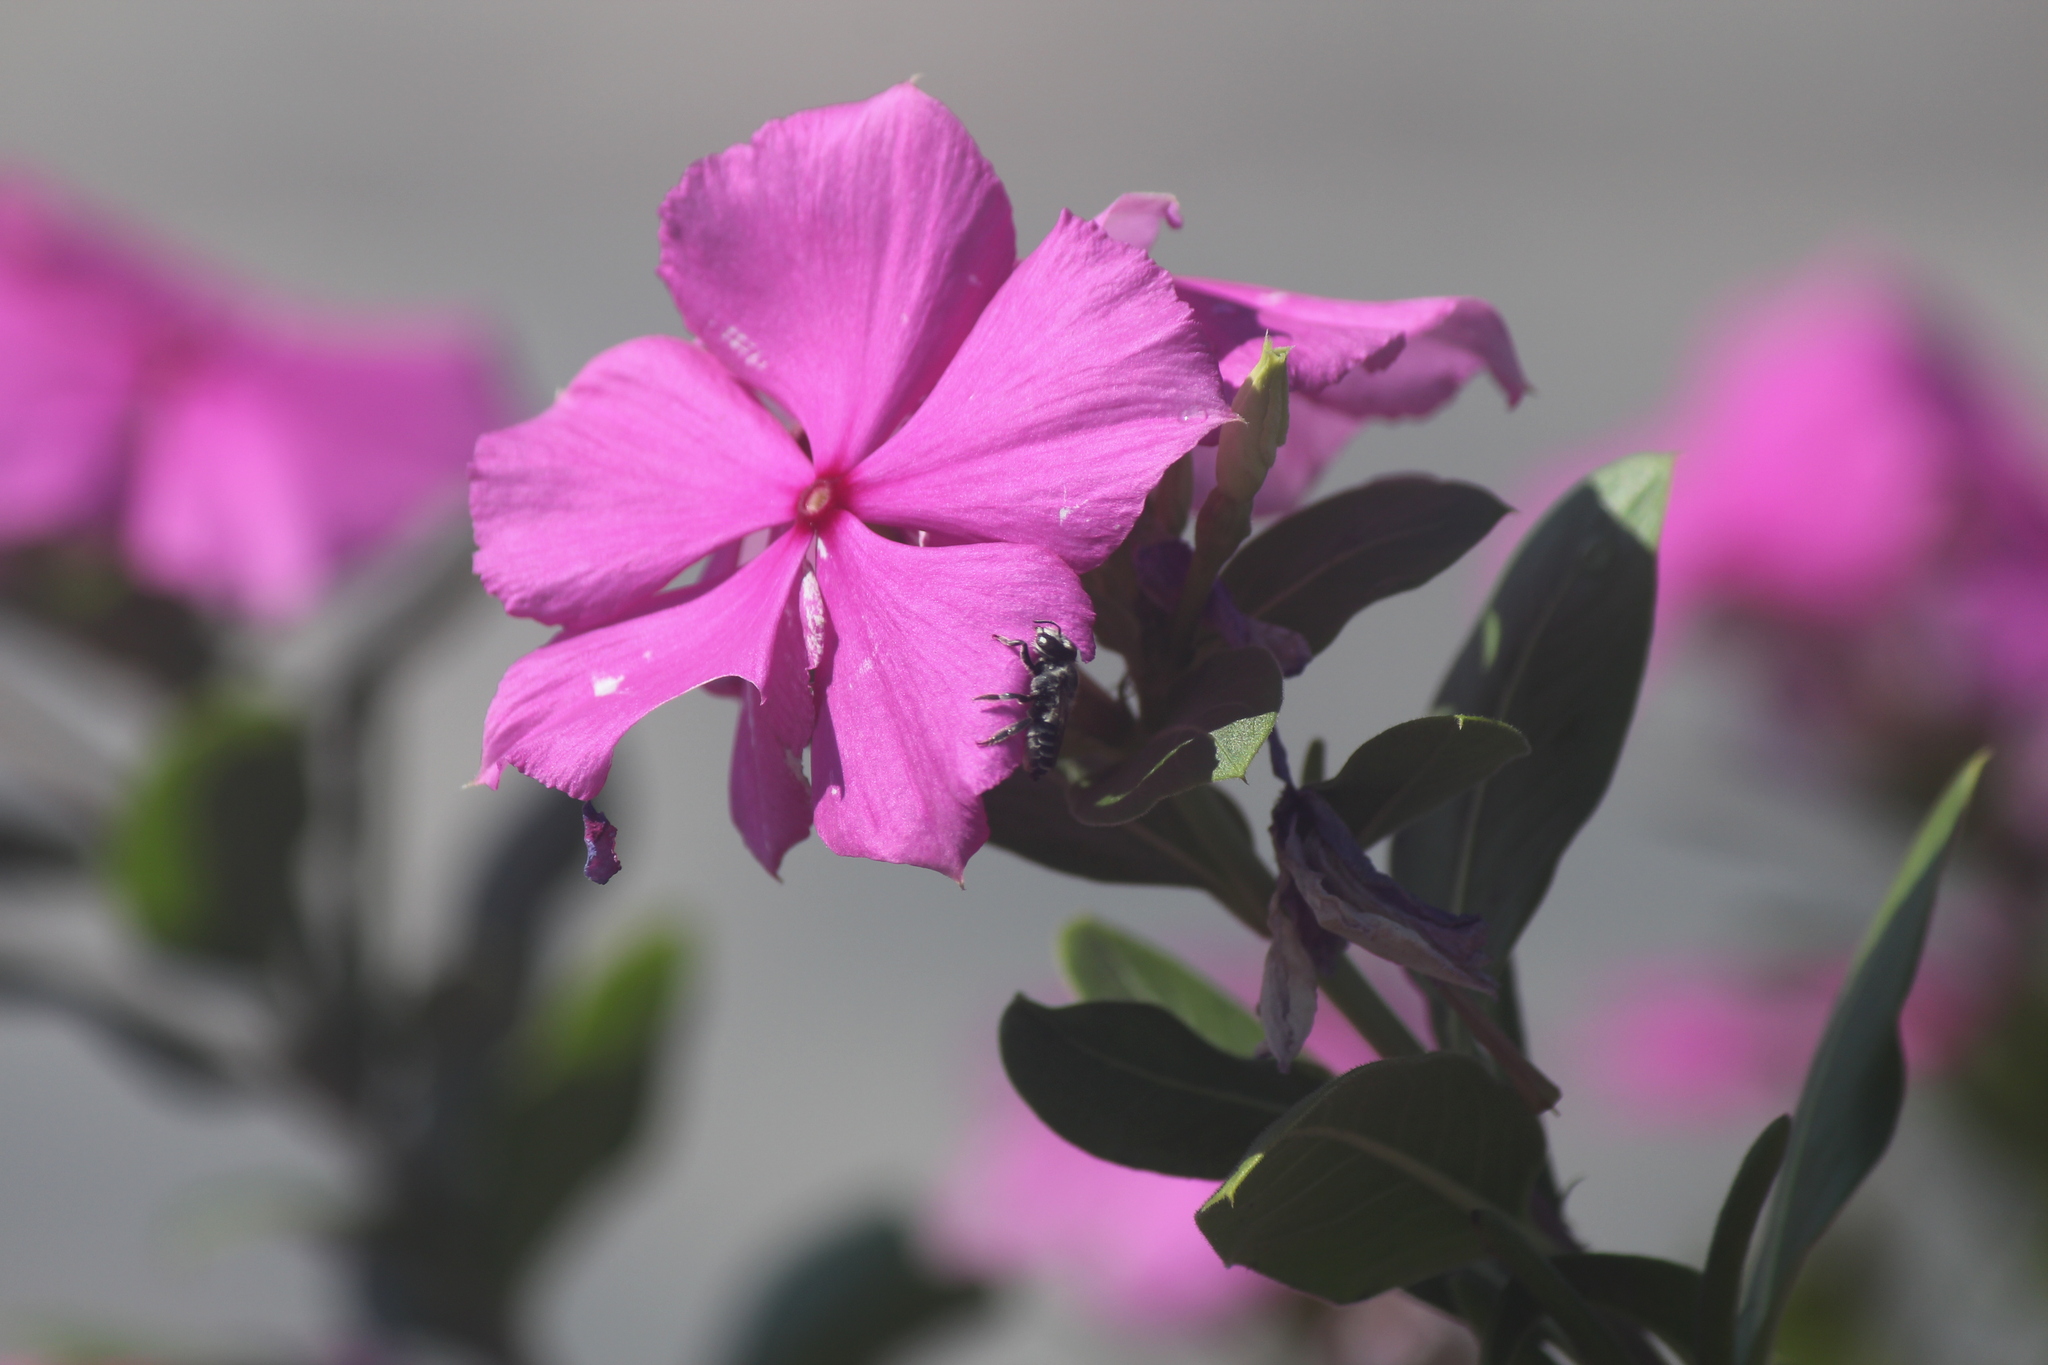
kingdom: Animalia
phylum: Arthropoda
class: Insecta
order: Hymenoptera
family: Megachilidae
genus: Megachile
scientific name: Megachile pusilla
